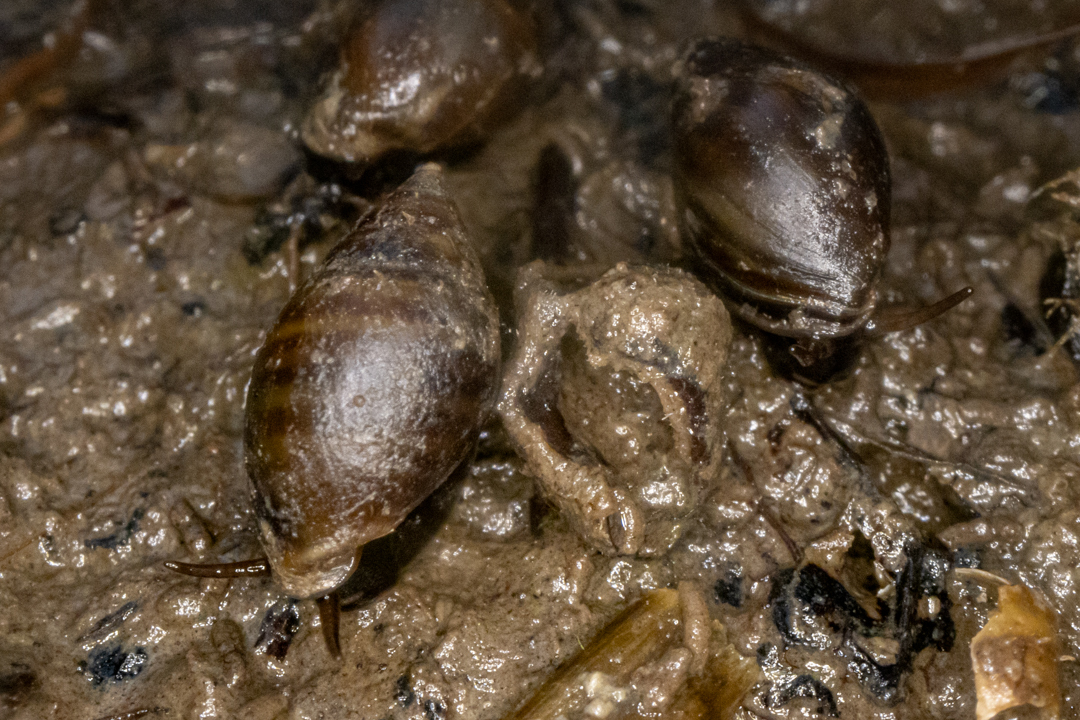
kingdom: Animalia
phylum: Mollusca
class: Gastropoda
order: Ellobiida
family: Ellobiidae
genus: Pleuroloba
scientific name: Pleuroloba costellaris
